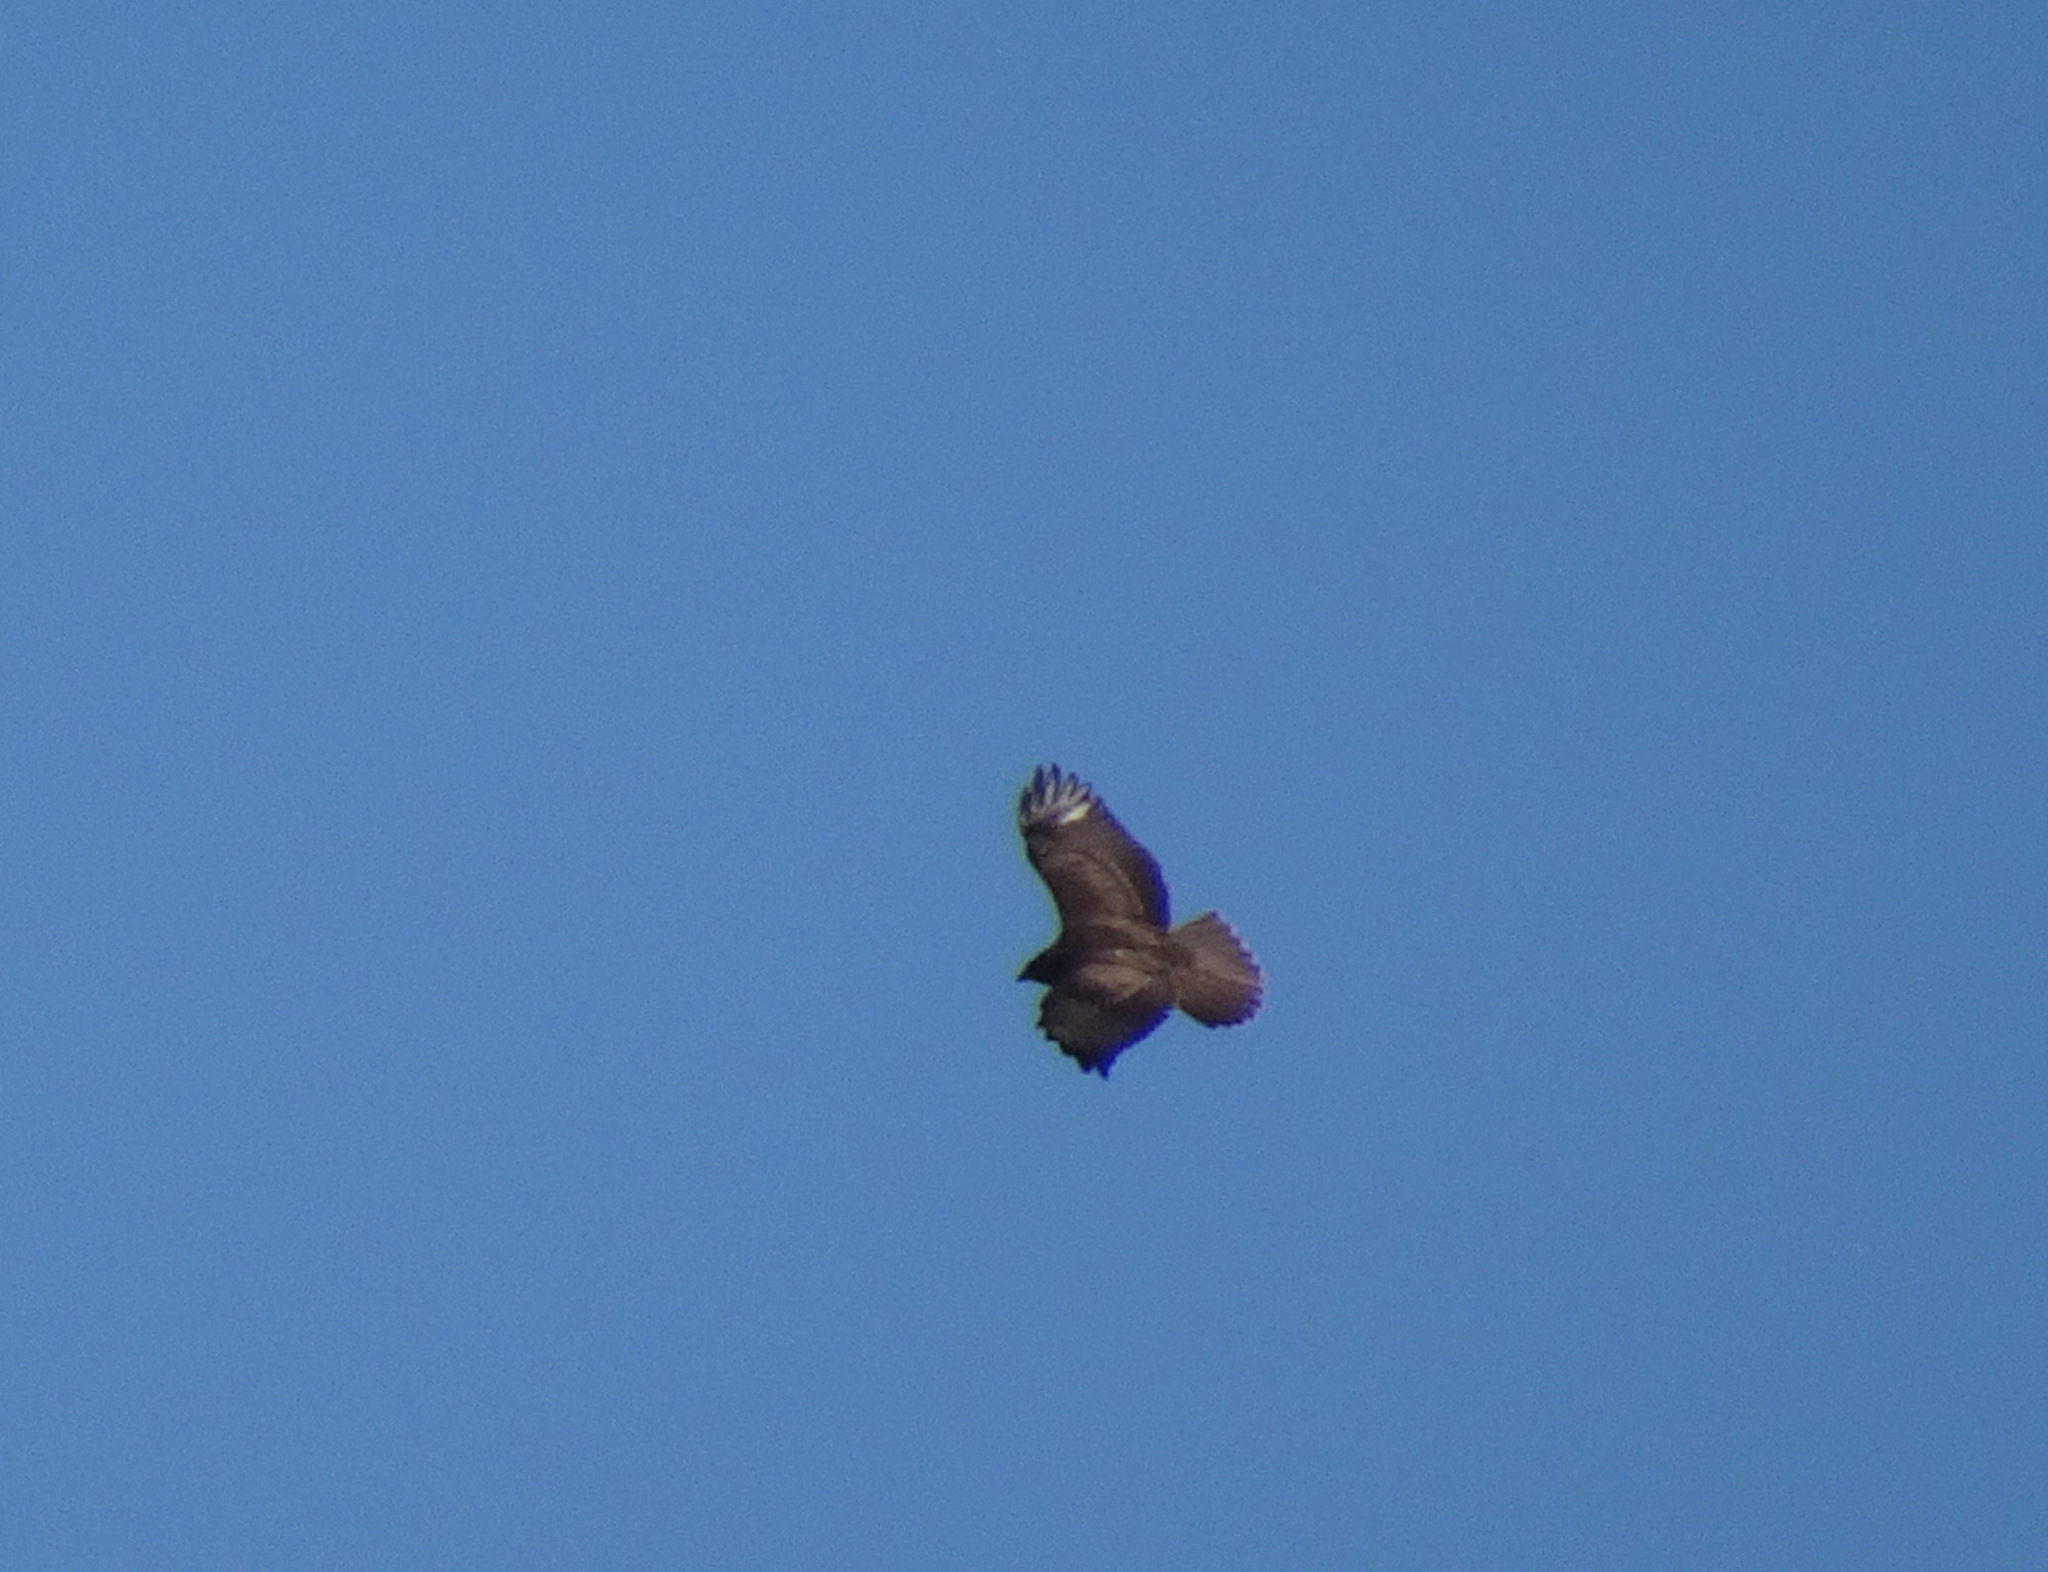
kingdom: Animalia
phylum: Chordata
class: Aves
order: Accipitriformes
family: Accipitridae
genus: Buteo
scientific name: Buteo buteo
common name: Common buzzard
